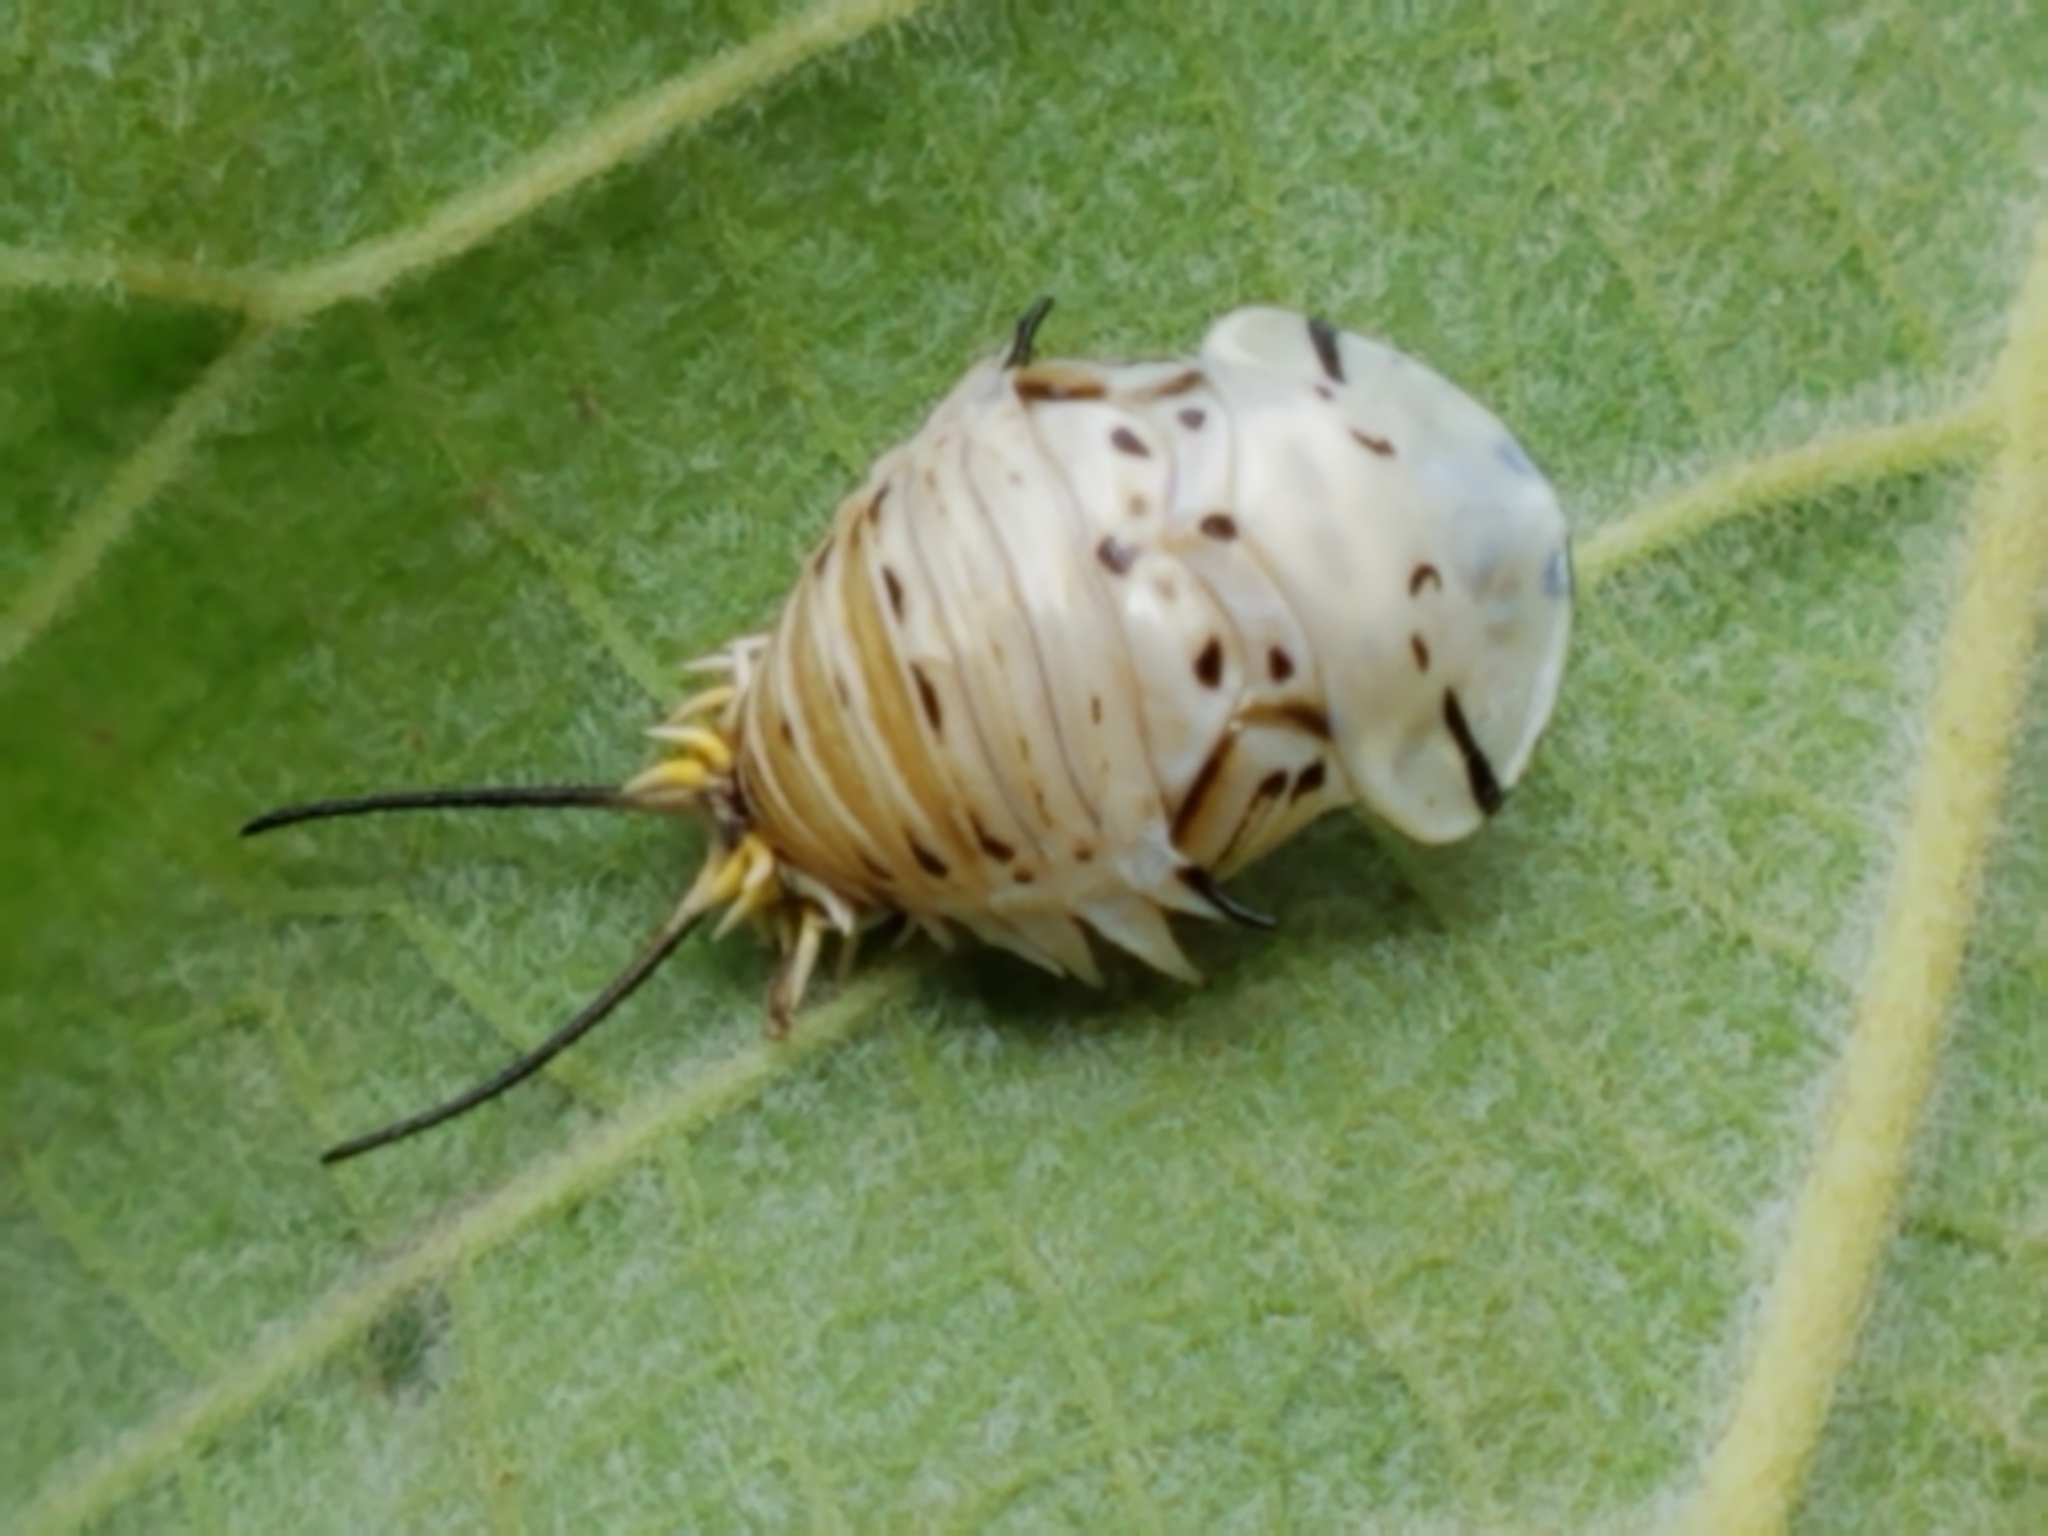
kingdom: Animalia
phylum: Arthropoda
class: Insecta
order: Coleoptera
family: Chrysomelidae
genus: Physonota
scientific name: Physonota alutacea
